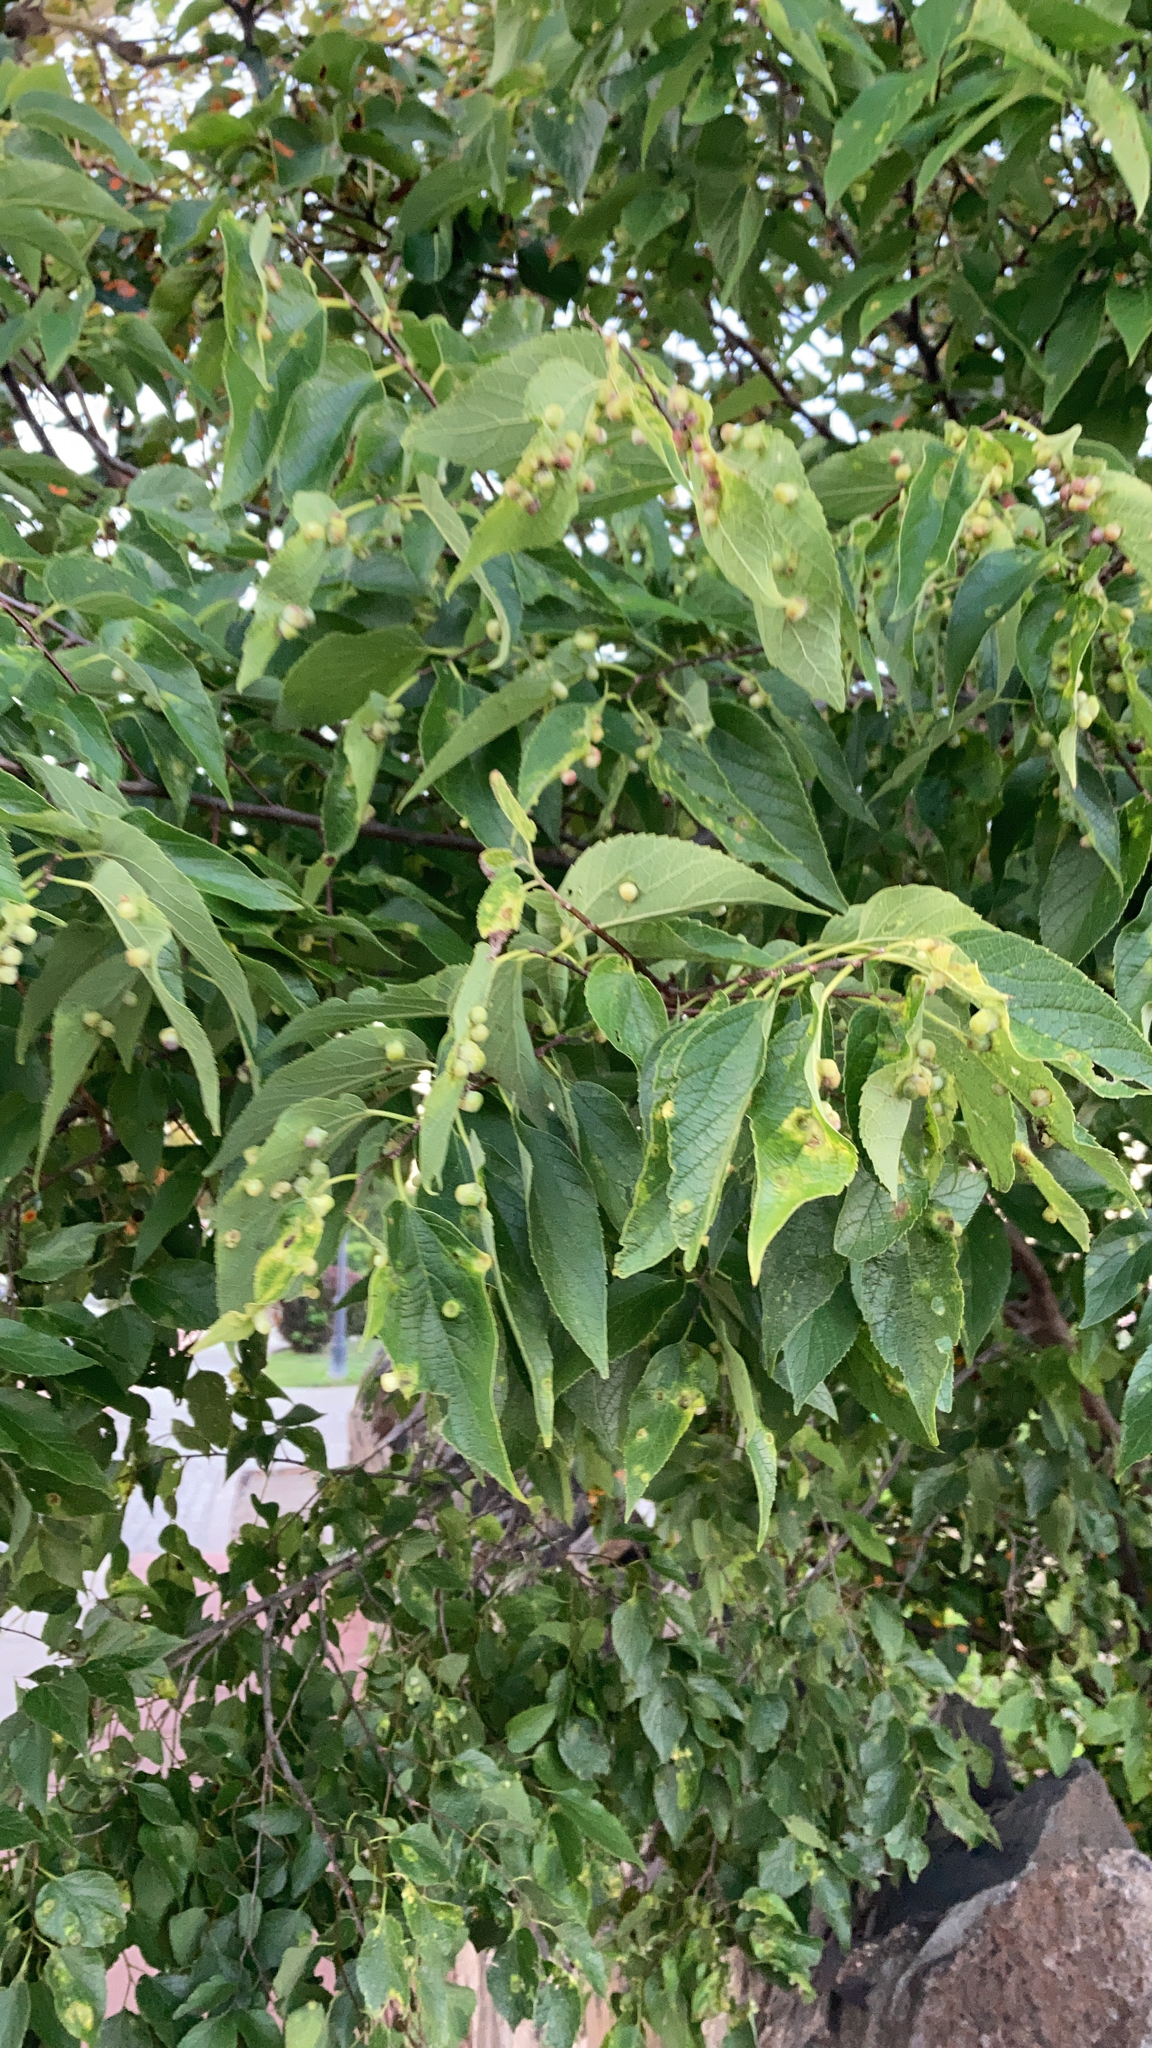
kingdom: Animalia
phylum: Arthropoda
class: Insecta
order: Hemiptera
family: Aphalaridae
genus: Pachypsylla
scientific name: Pachypsylla celtidismamma
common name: Hackberry nipplegall psyllid
